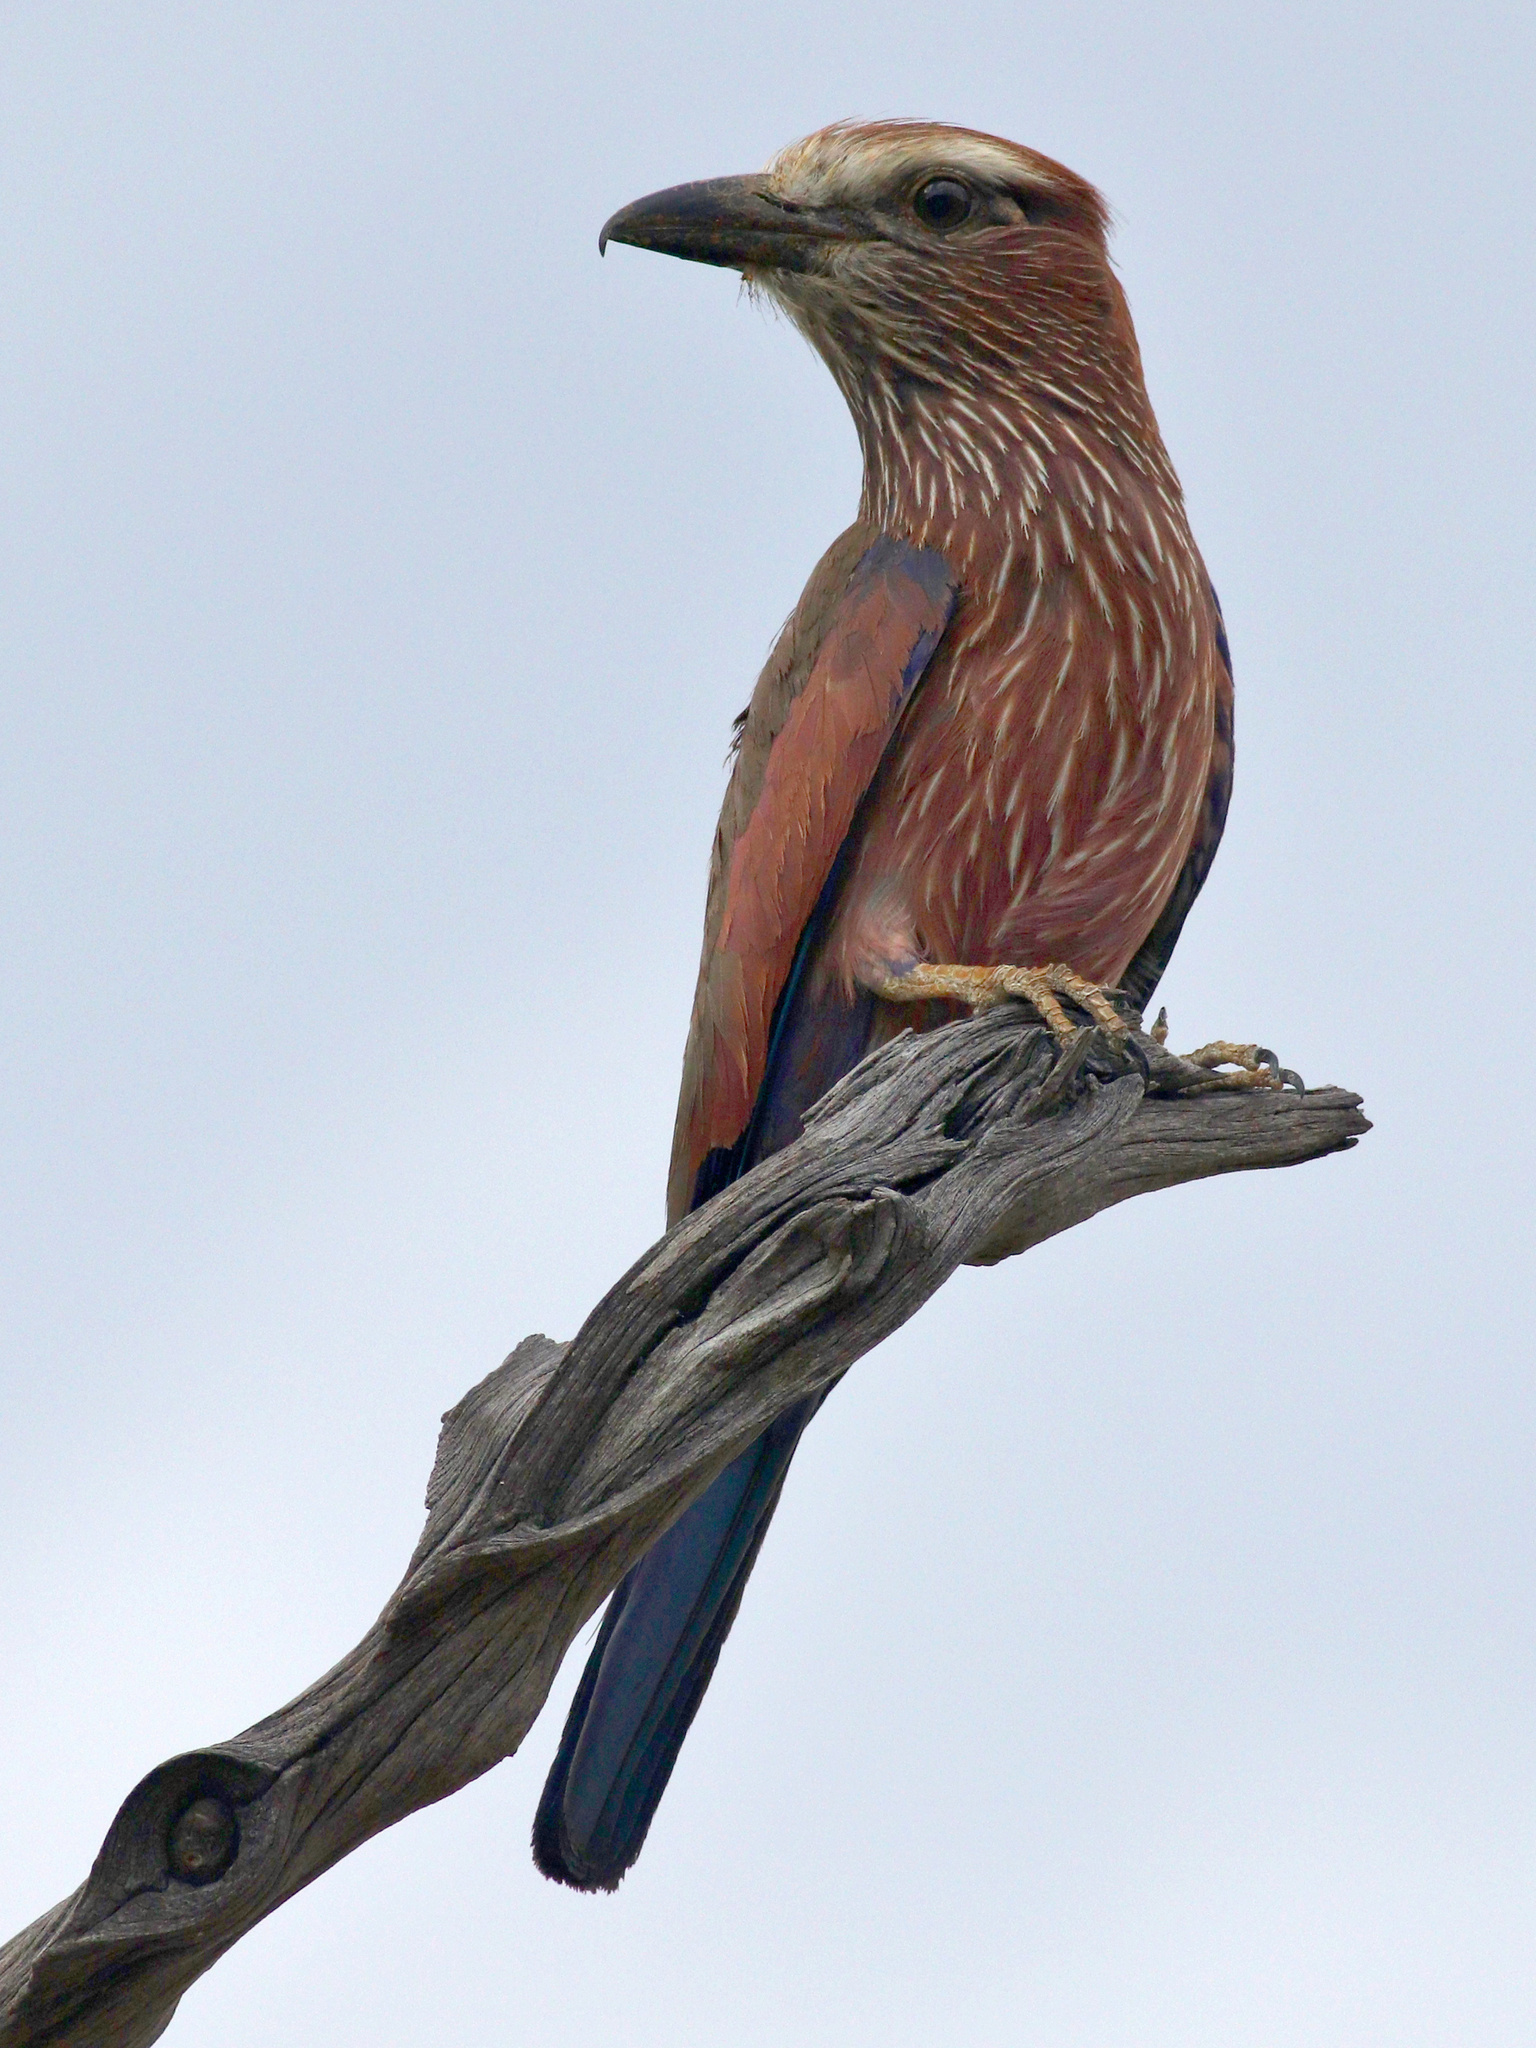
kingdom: Animalia
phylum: Chordata
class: Aves
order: Coraciiformes
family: Coraciidae
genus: Coracias
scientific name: Coracias naevius
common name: Purple roller
